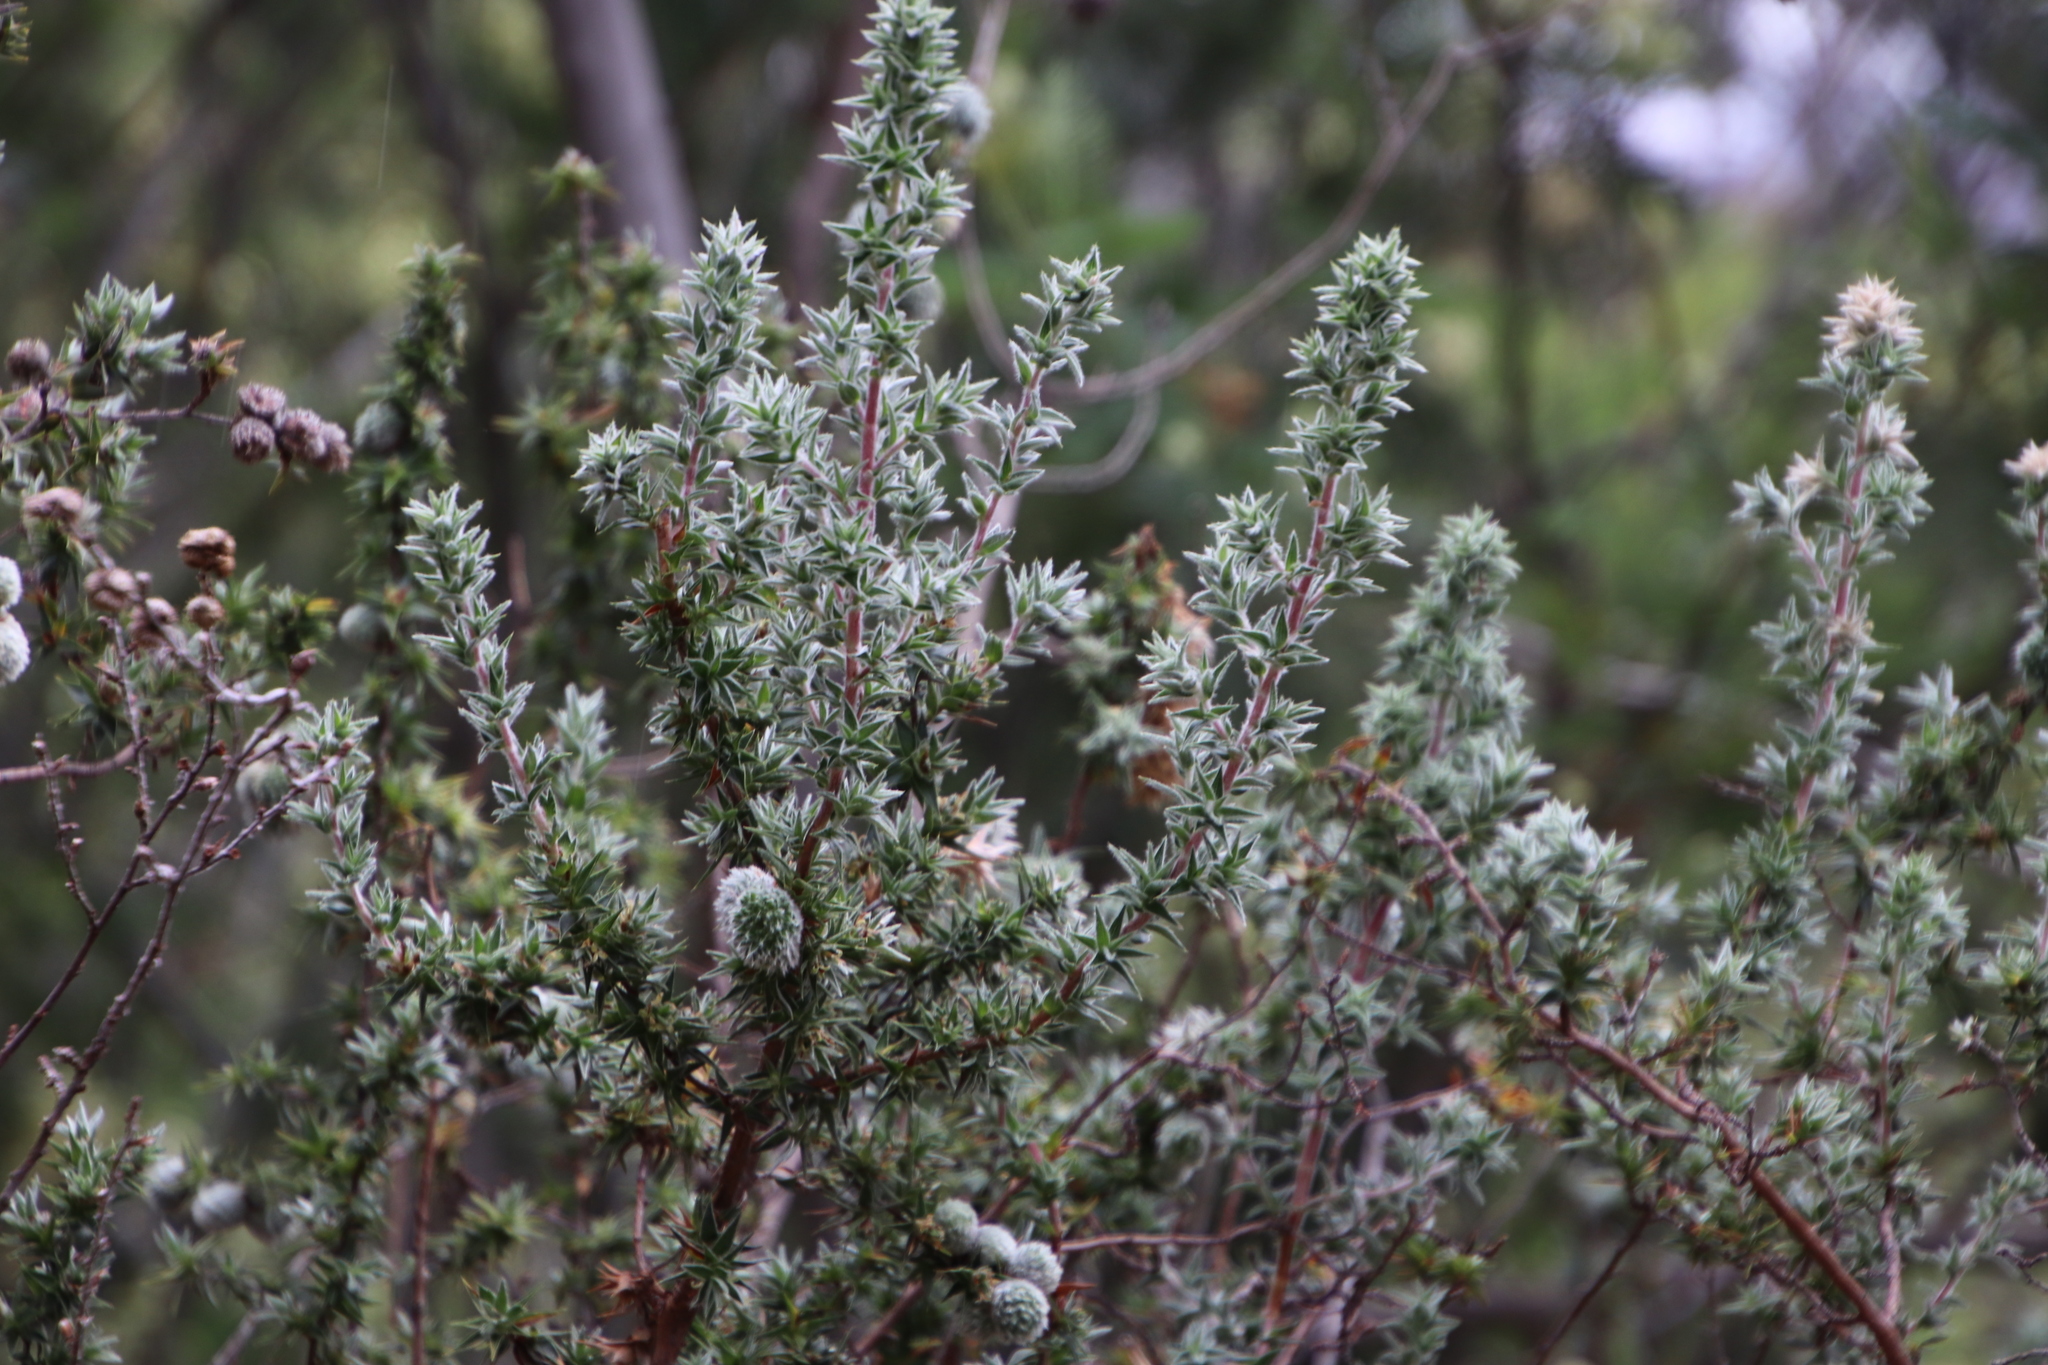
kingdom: Plantae
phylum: Tracheophyta
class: Magnoliopsida
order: Rosales
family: Rosaceae
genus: Cliffortia
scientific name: Cliffortia ruscifolia
